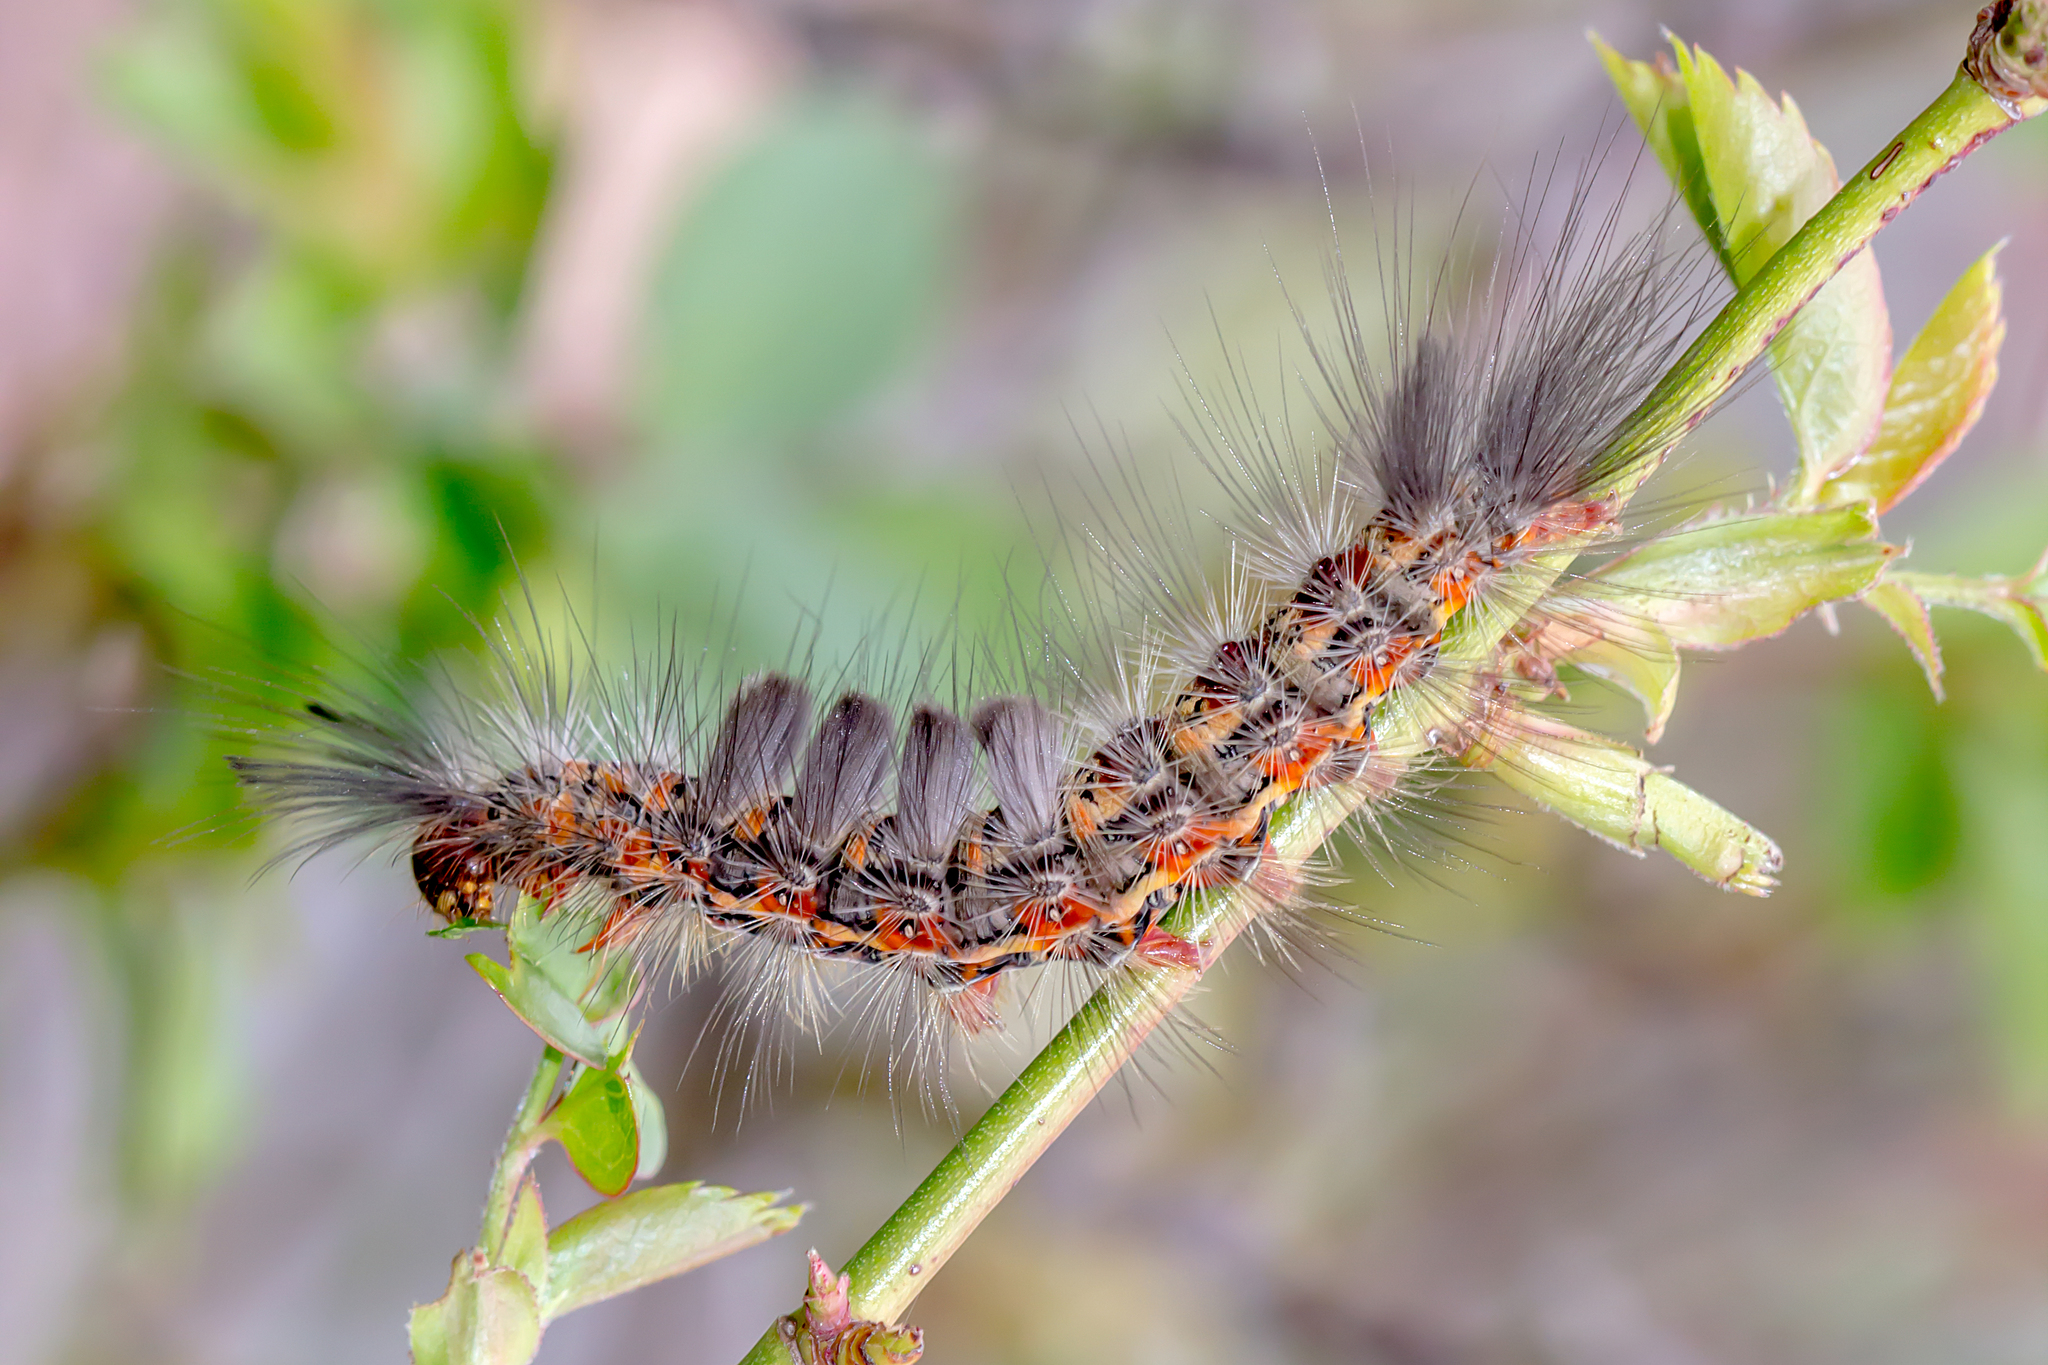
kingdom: Animalia
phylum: Arthropoda
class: Insecta
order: Lepidoptera
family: Erebidae
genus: Orgyia
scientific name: Orgyia
